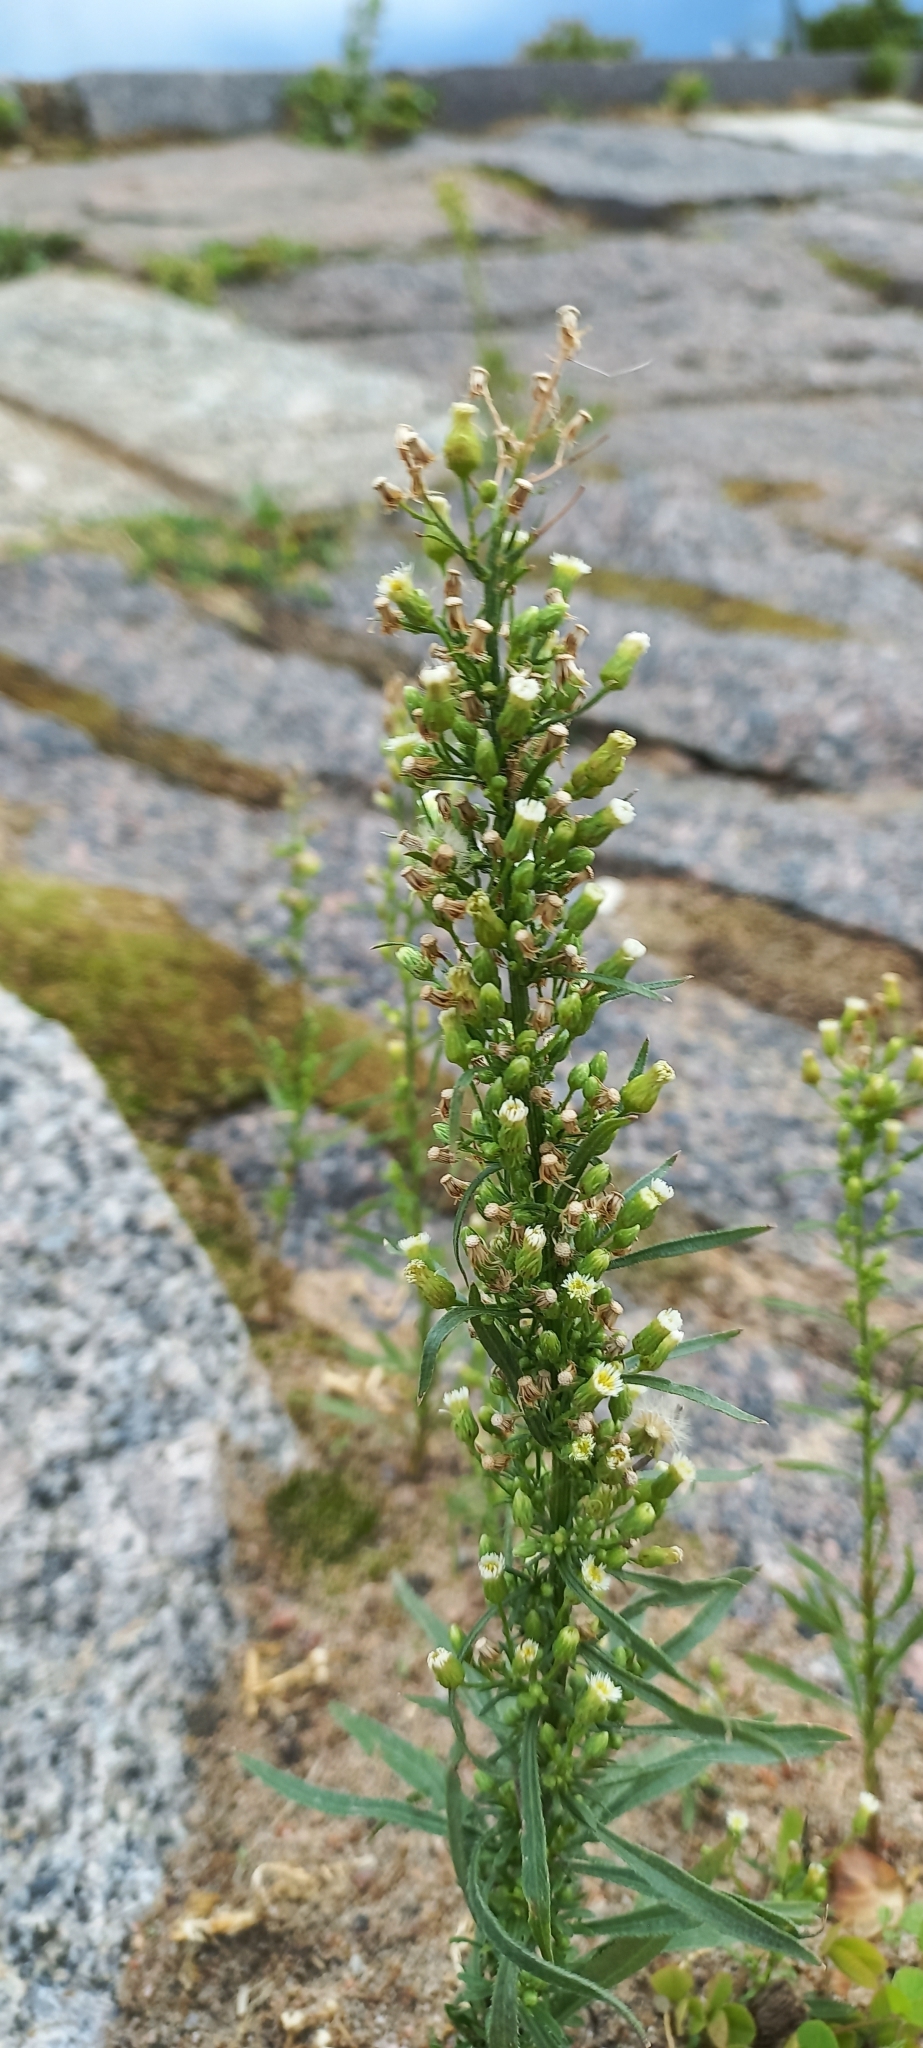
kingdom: Plantae
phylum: Tracheophyta
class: Magnoliopsida
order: Asterales
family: Asteraceae
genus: Erigeron
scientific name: Erigeron canadensis
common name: Canadian fleabane
